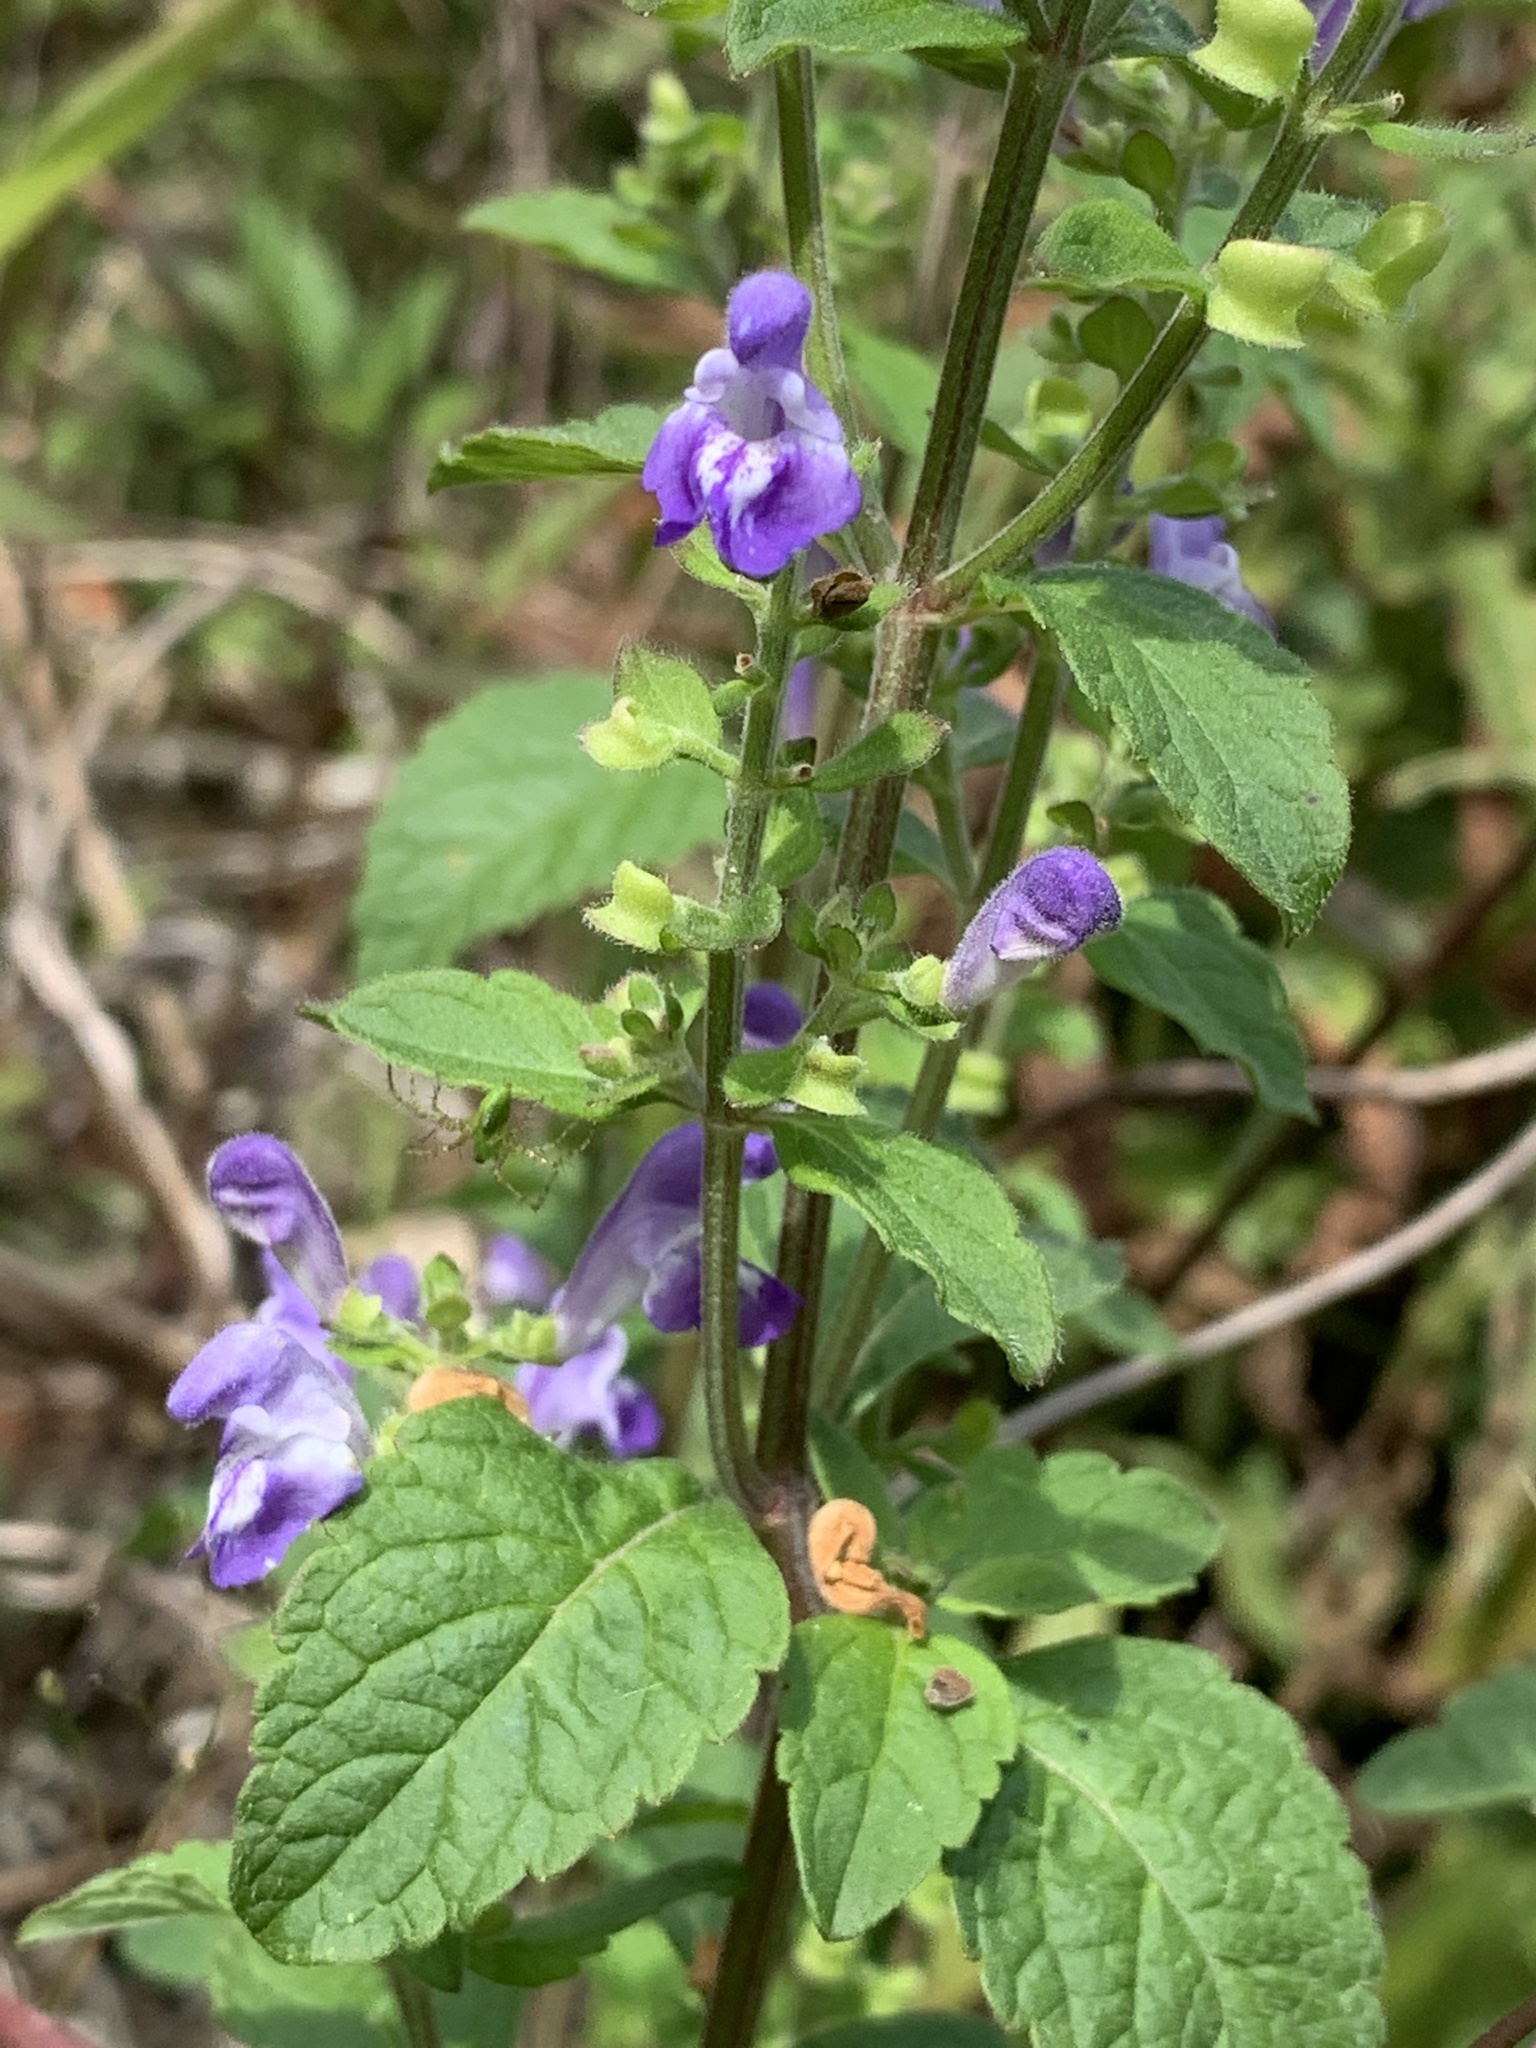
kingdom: Plantae
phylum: Tracheophyta
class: Magnoliopsida
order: Lamiales
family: Lamiaceae
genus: Scutellaria
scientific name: Scutellaria elliptica
